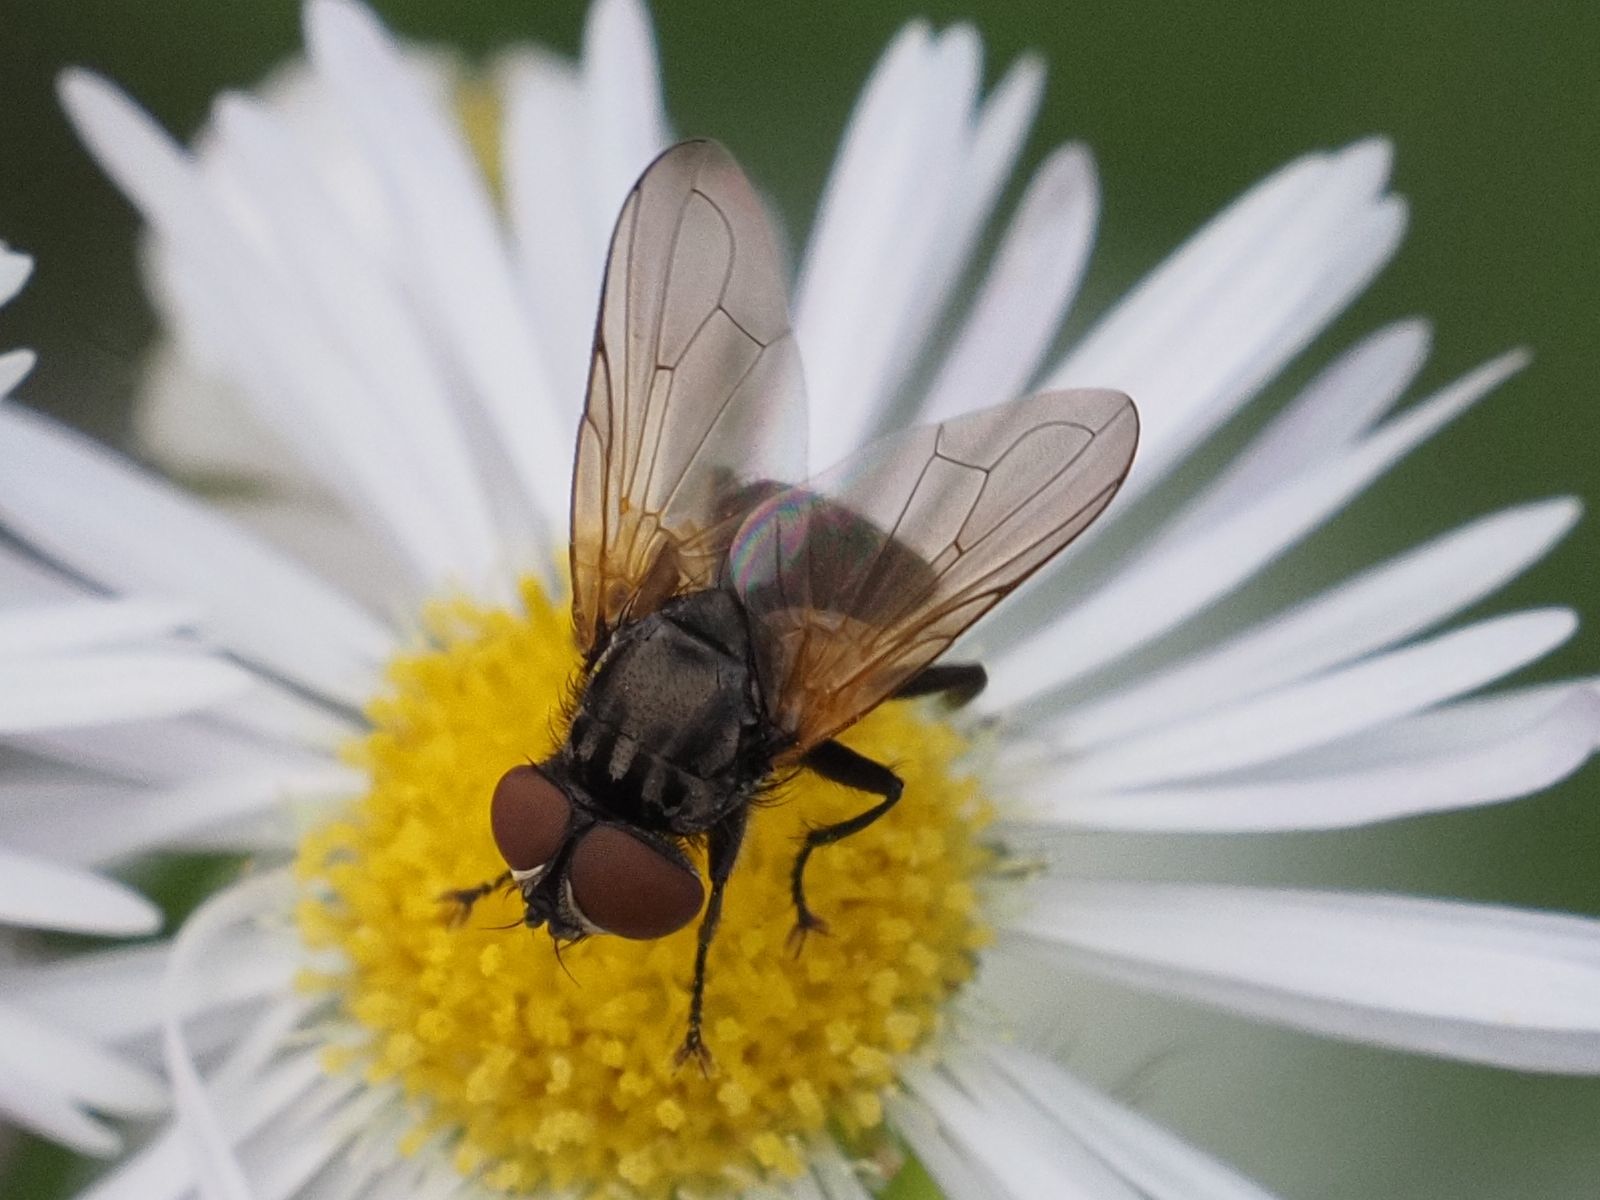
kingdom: Animalia
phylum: Arthropoda
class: Insecta
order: Diptera
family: Tachinidae
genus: Phasia
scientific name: Phasia obesa
